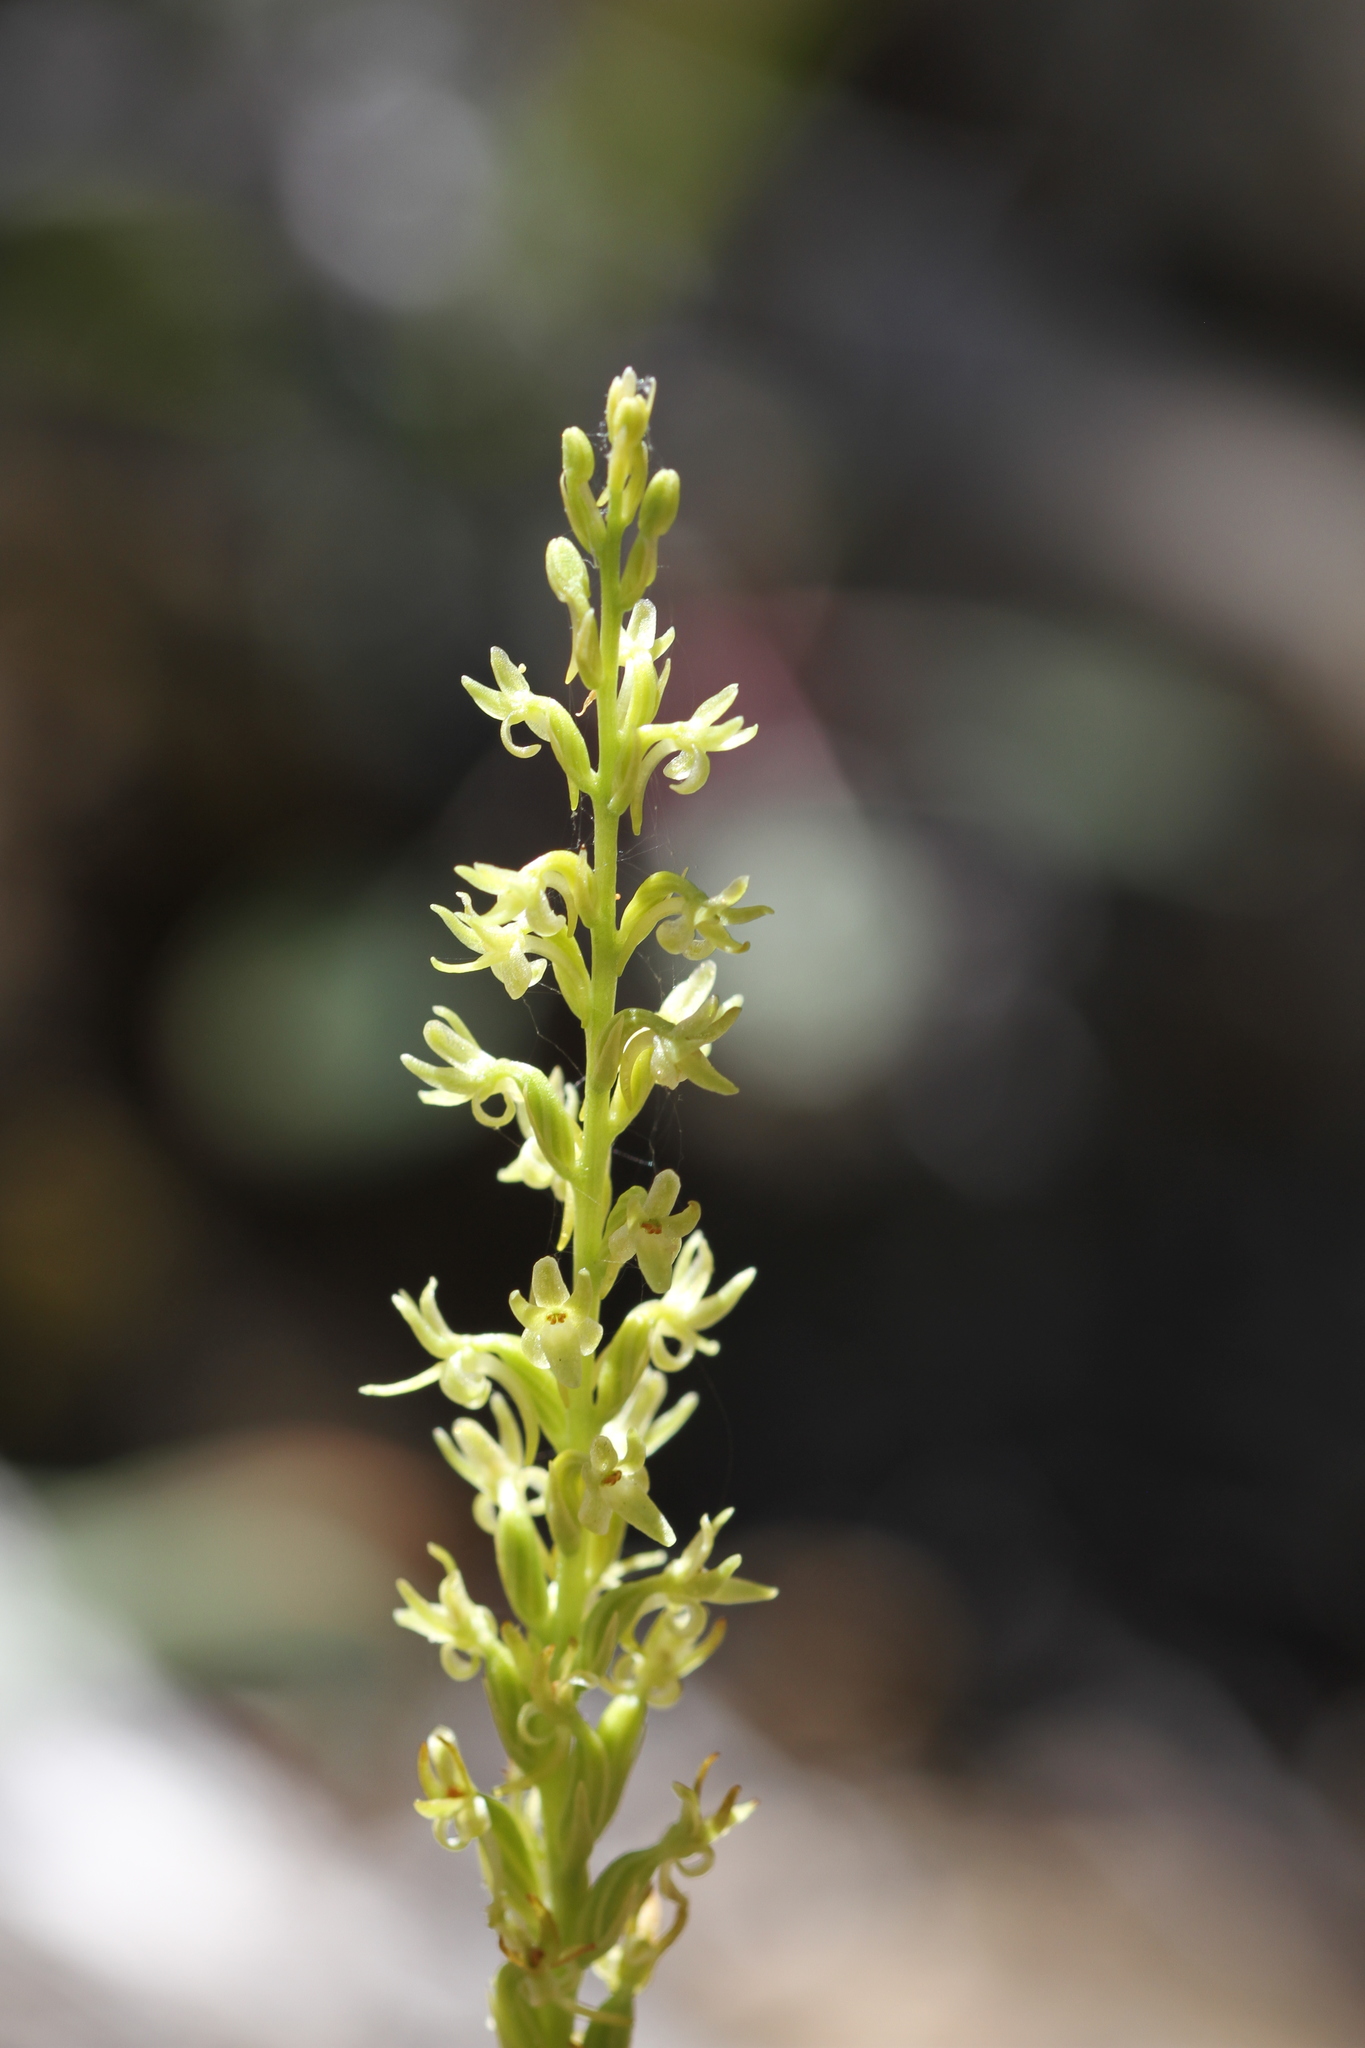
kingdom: Plantae
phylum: Tracheophyta
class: Liliopsida
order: Asparagales
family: Orchidaceae
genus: Platanthera
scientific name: Platanthera leptopetala
